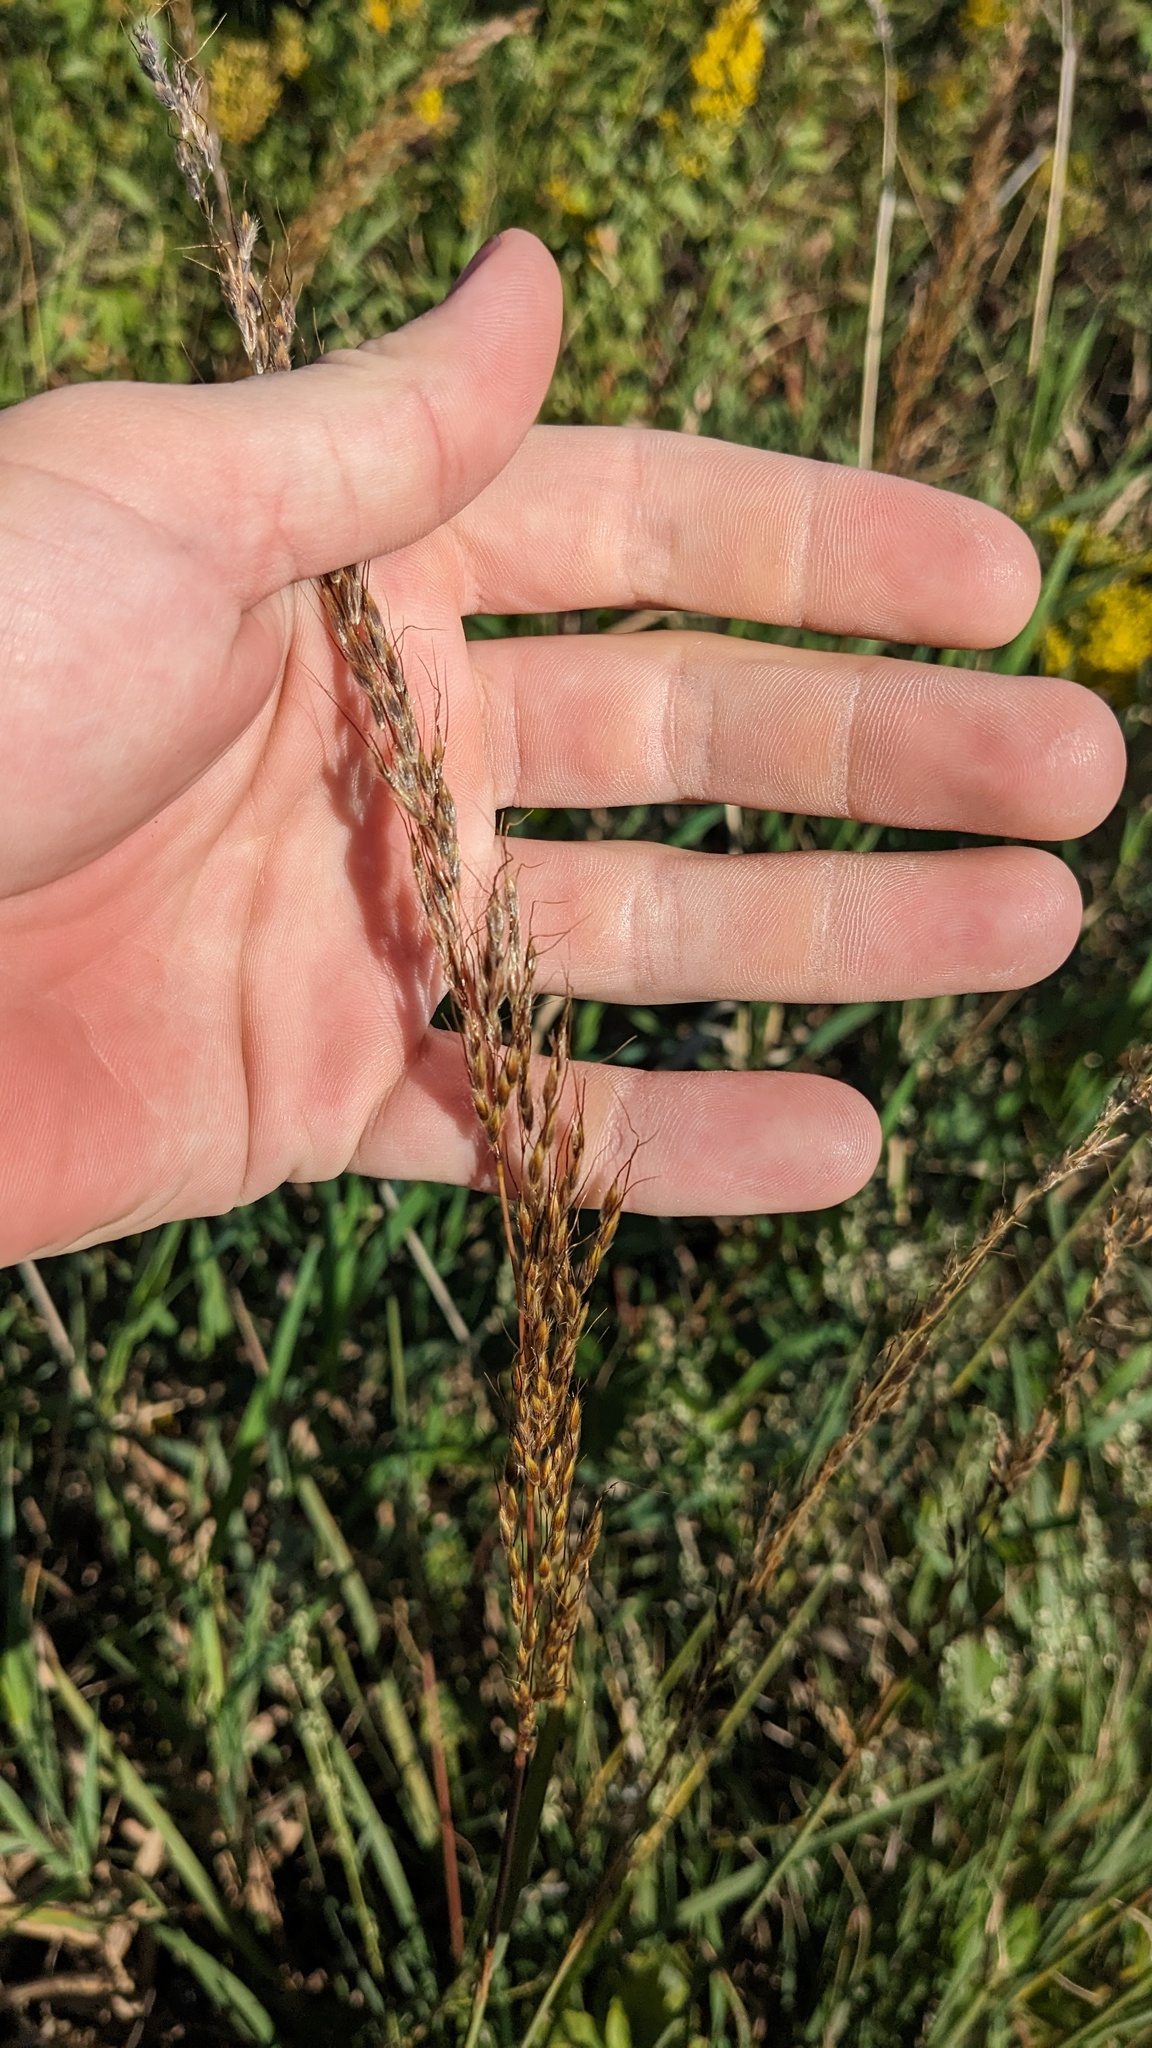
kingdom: Plantae
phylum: Tracheophyta
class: Liliopsida
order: Poales
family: Poaceae
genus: Sorghastrum
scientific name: Sorghastrum nutans
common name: Indian grass
